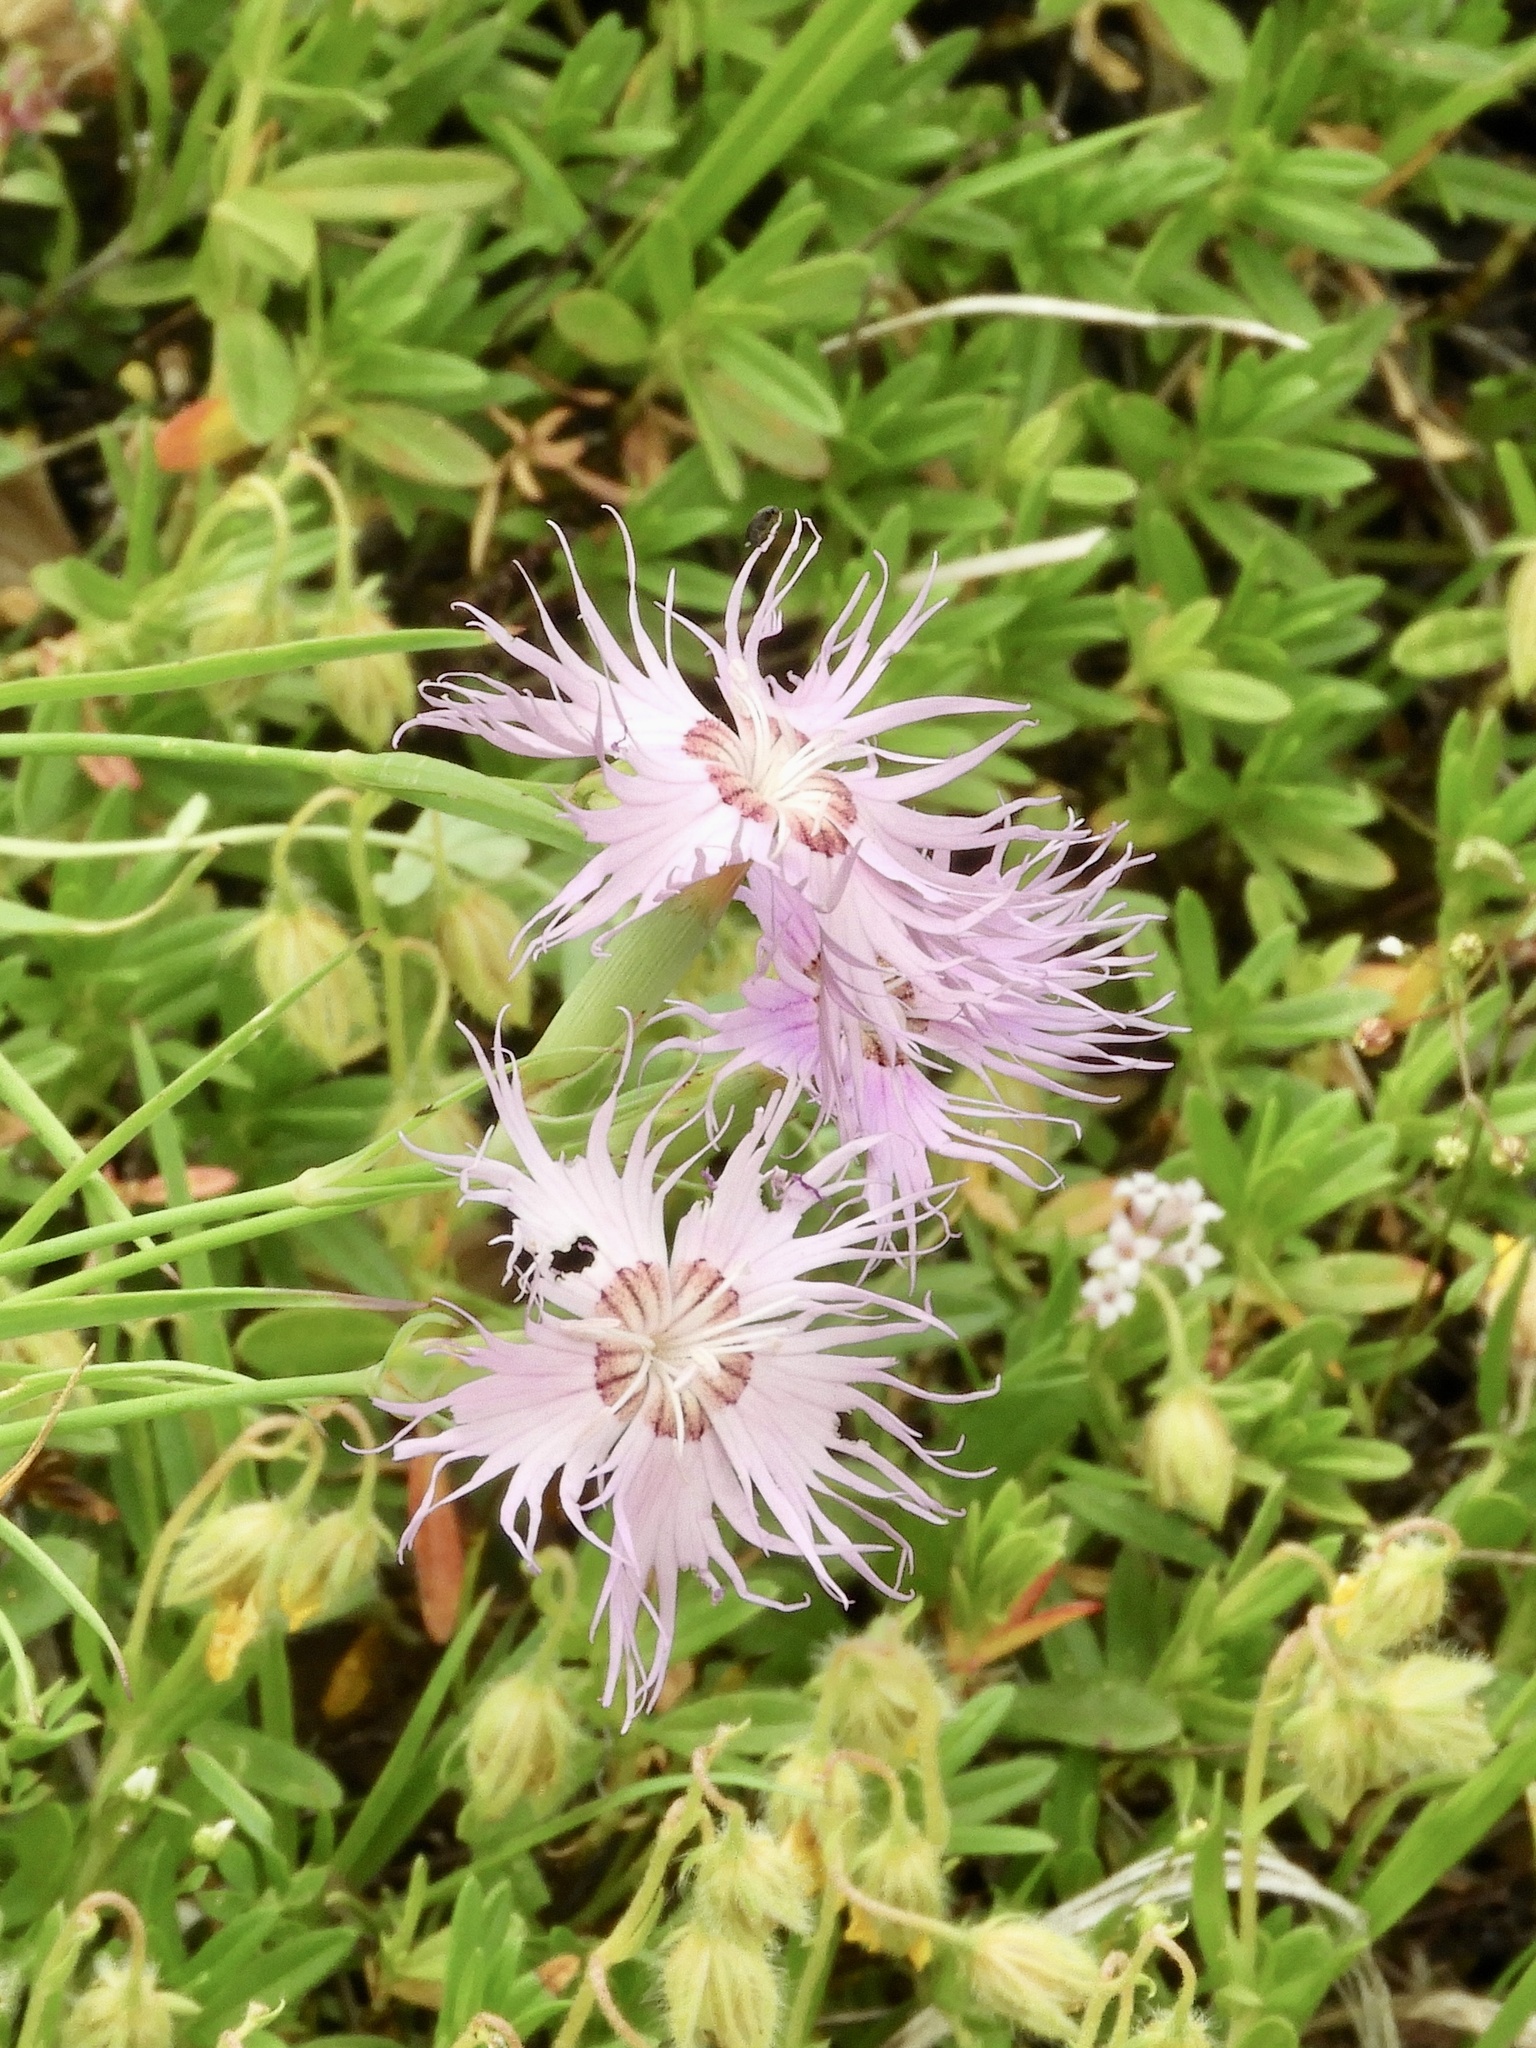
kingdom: Plantae
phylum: Tracheophyta
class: Magnoliopsida
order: Caryophyllales
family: Caryophyllaceae
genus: Dianthus
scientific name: Dianthus hyssopifolius
